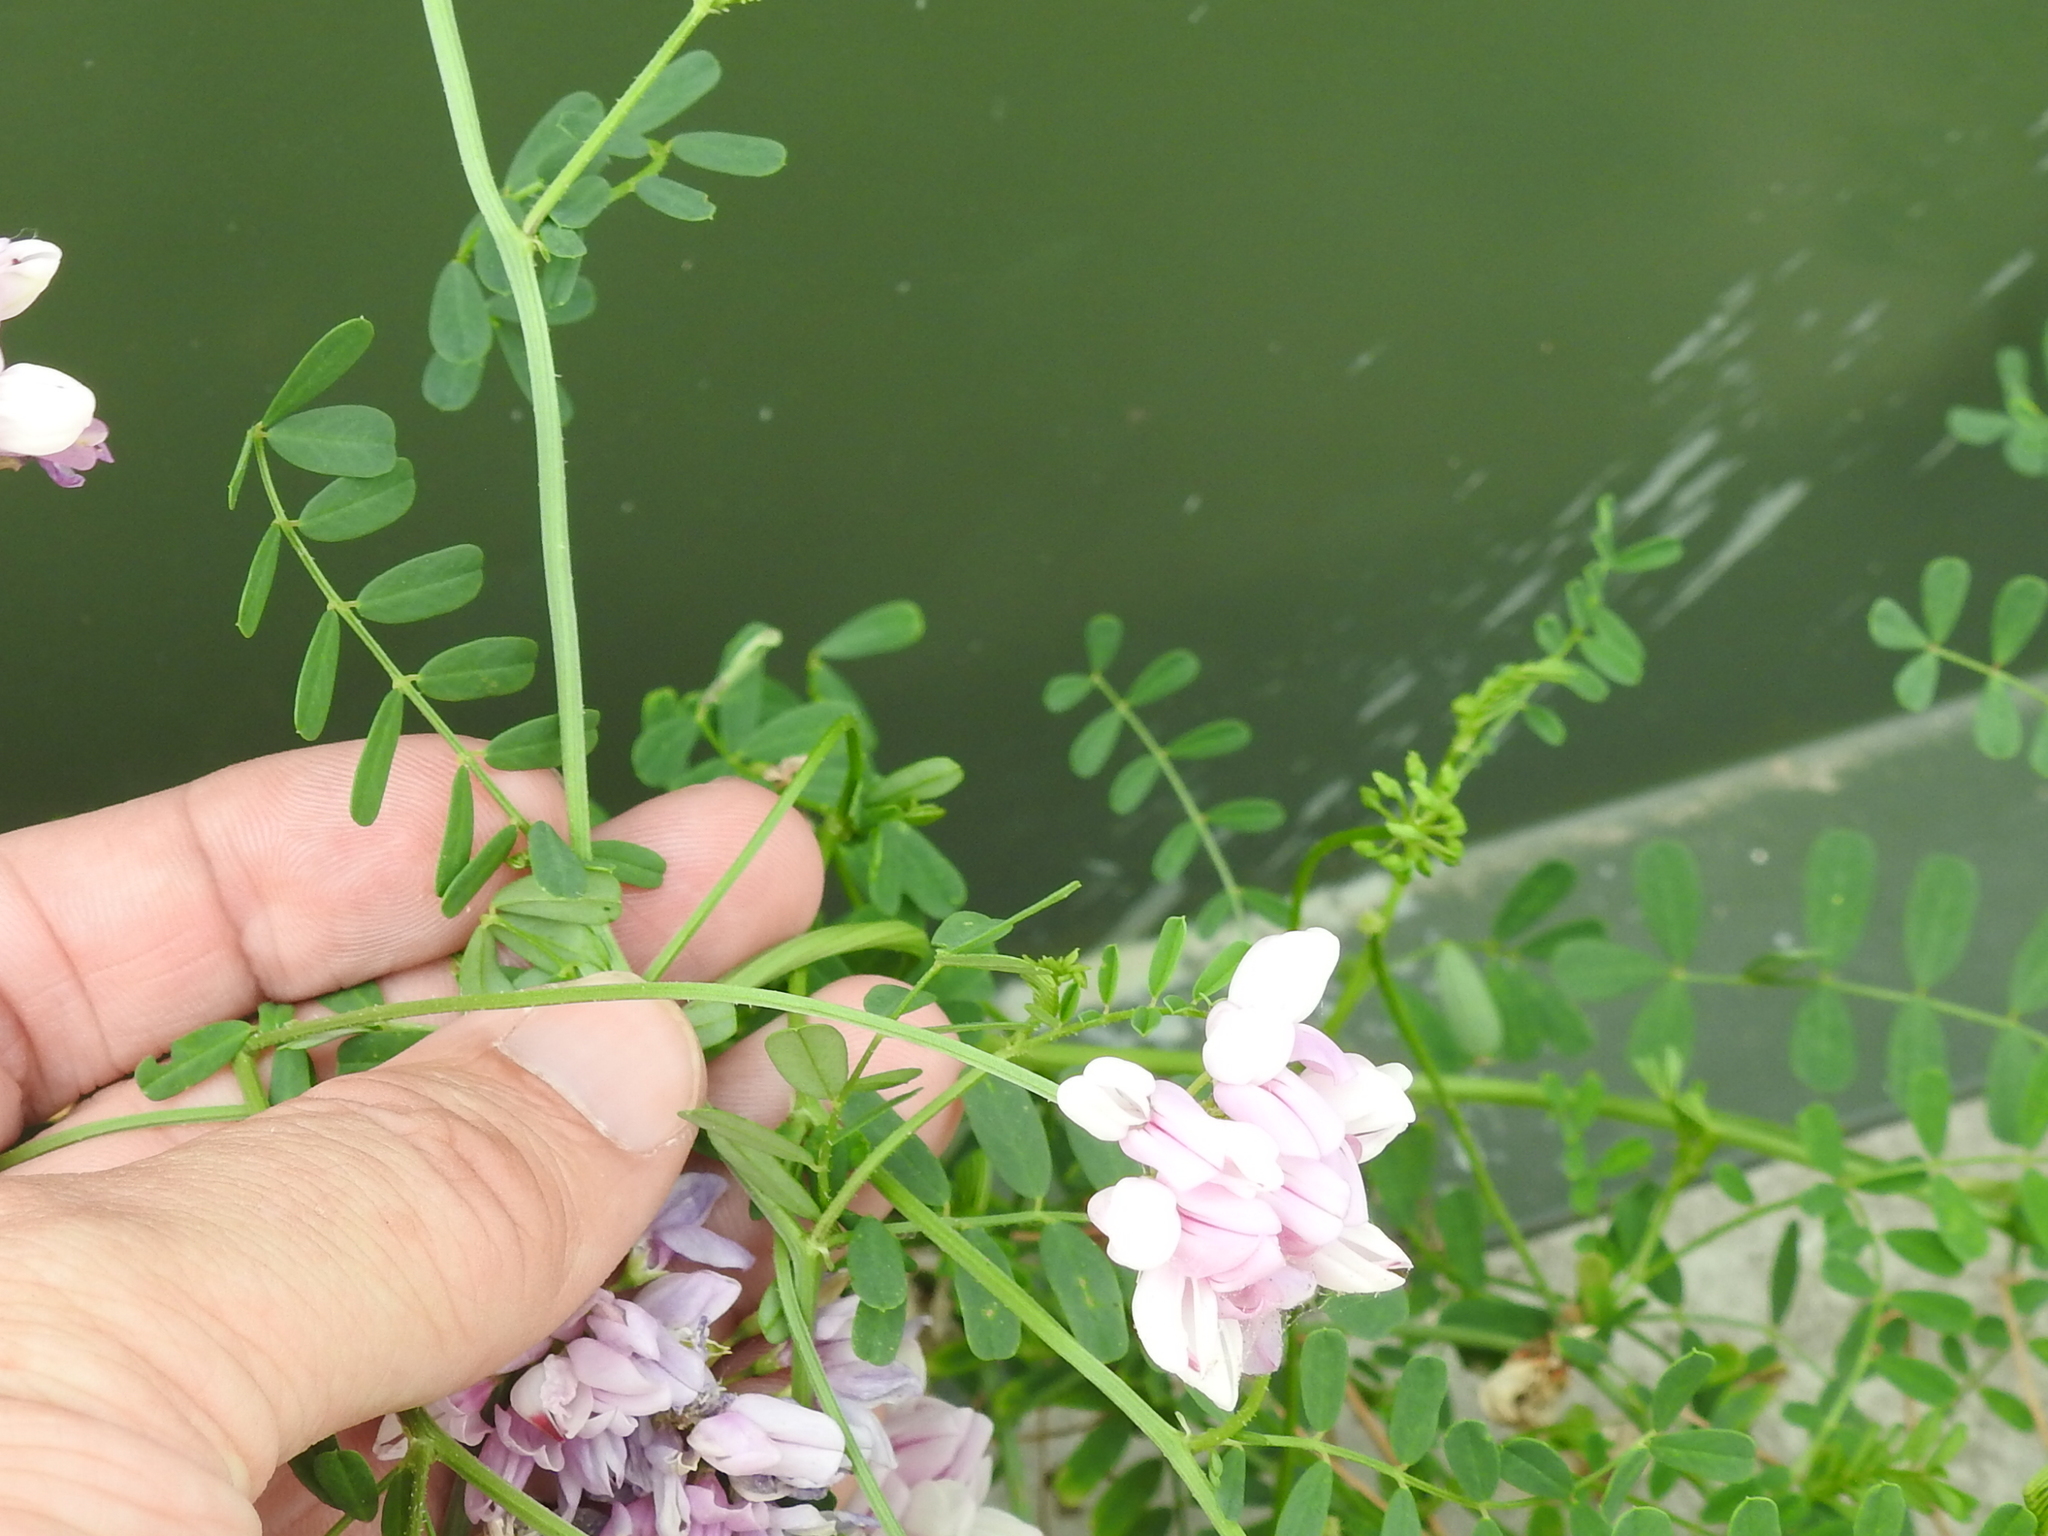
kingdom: Plantae
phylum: Tracheophyta
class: Magnoliopsida
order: Fabales
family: Fabaceae
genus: Coronilla
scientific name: Coronilla varia
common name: Crownvetch
